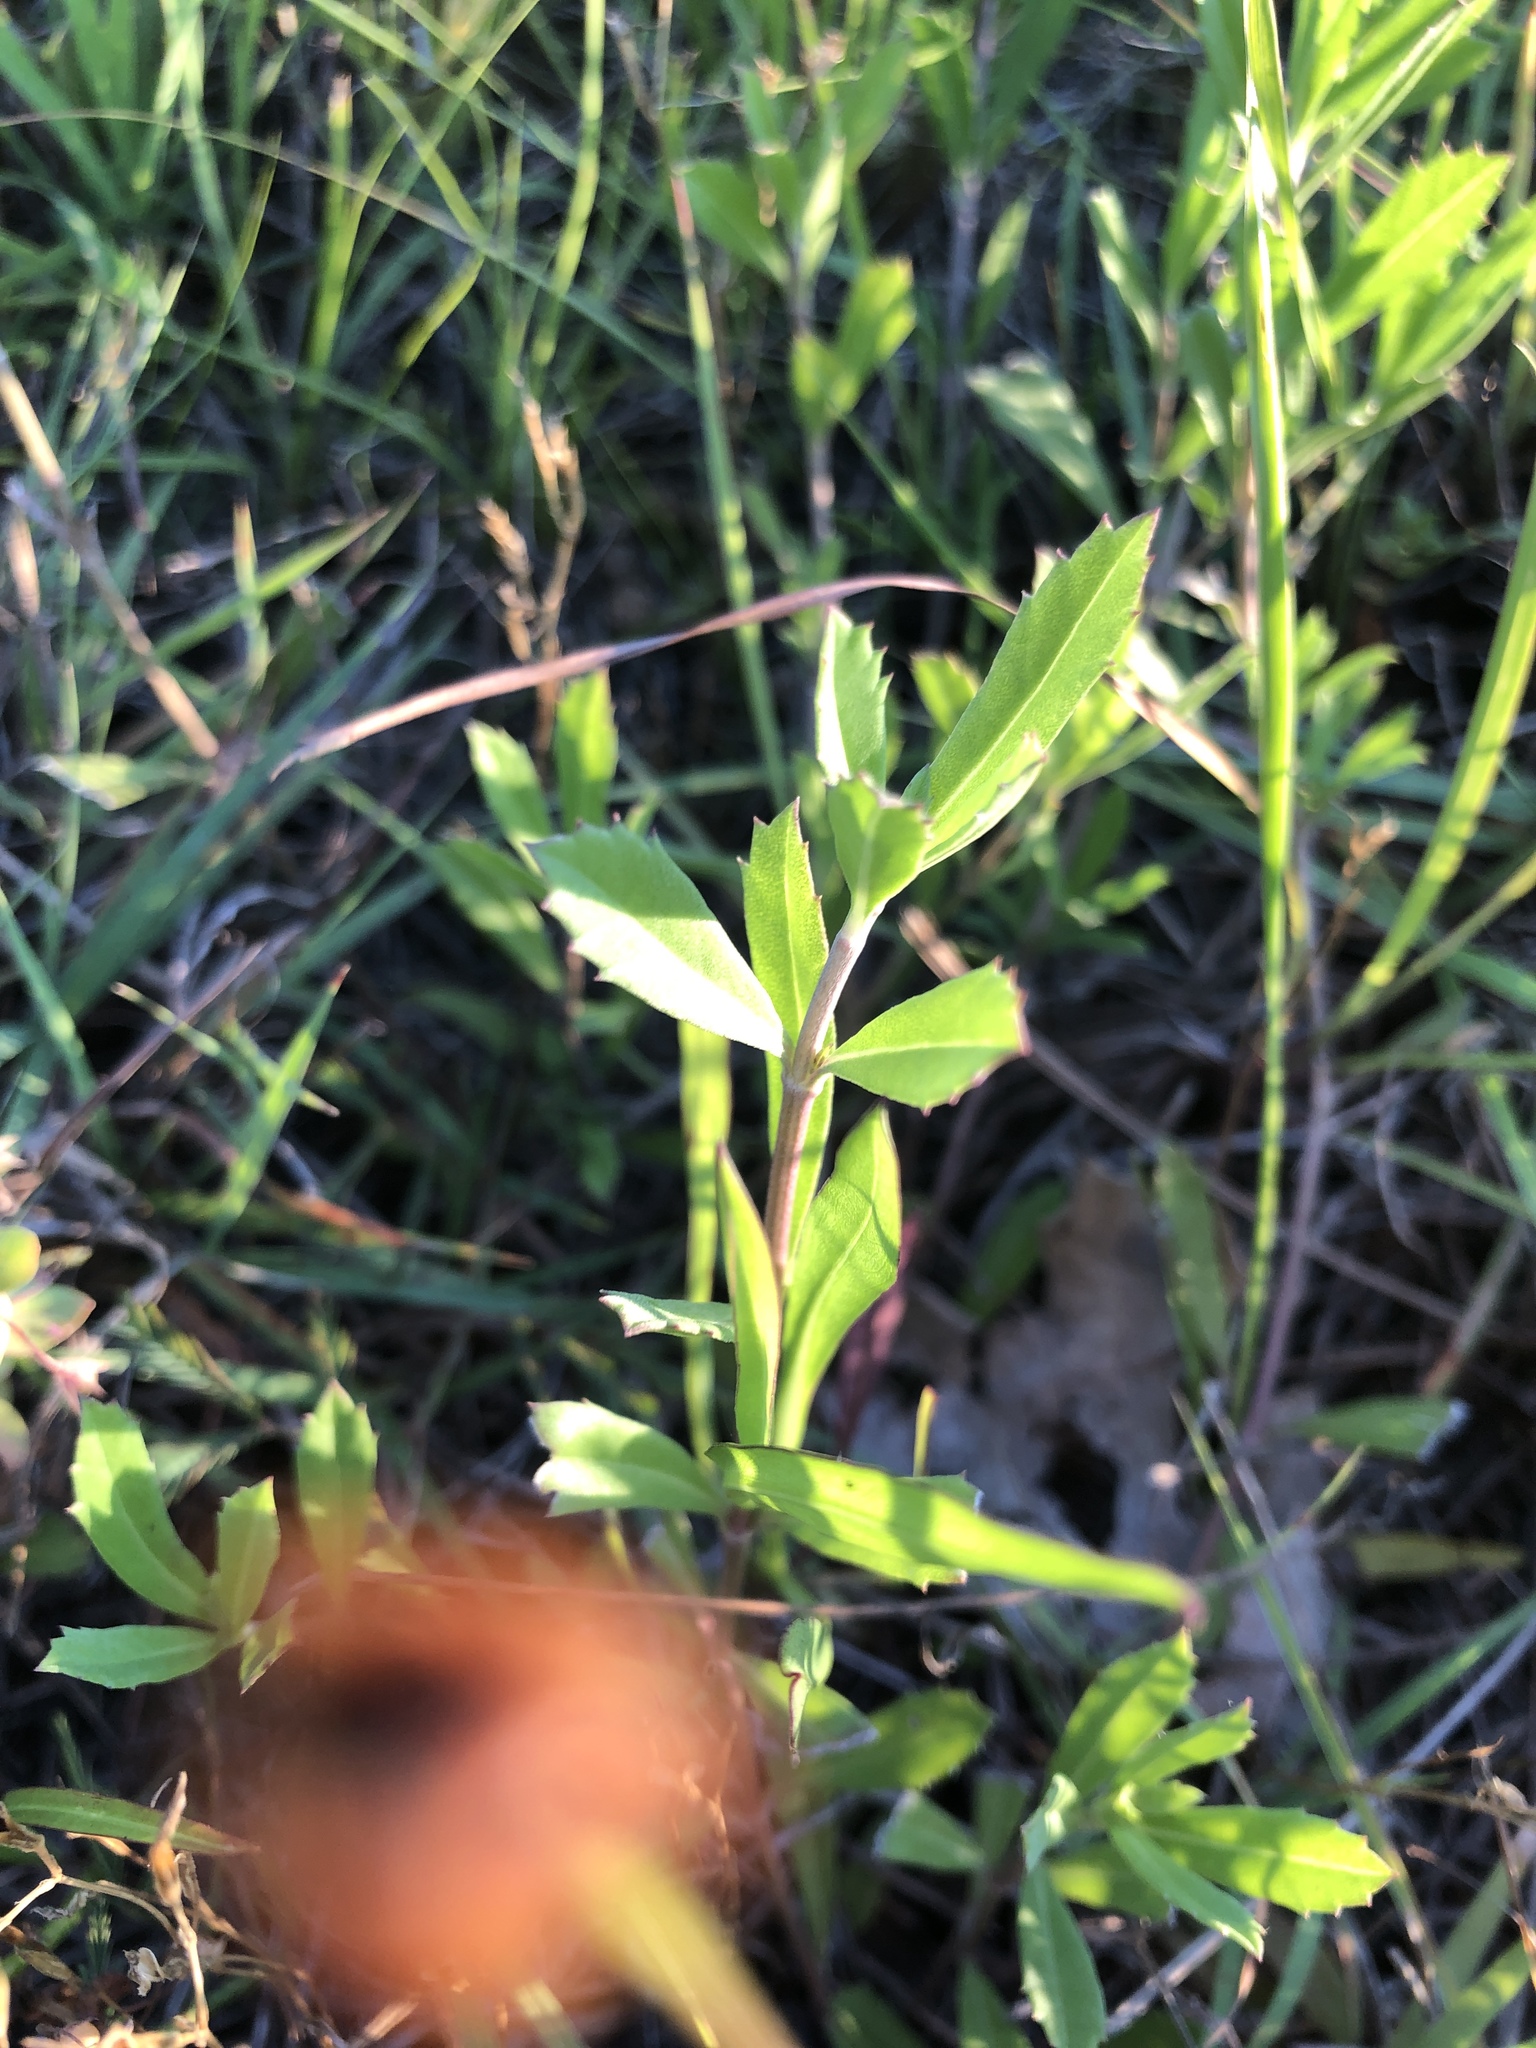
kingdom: Plantae
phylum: Tracheophyta
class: Magnoliopsida
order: Lamiales
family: Verbenaceae
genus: Phyla
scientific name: Phyla nodiflora
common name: Frogfruit
